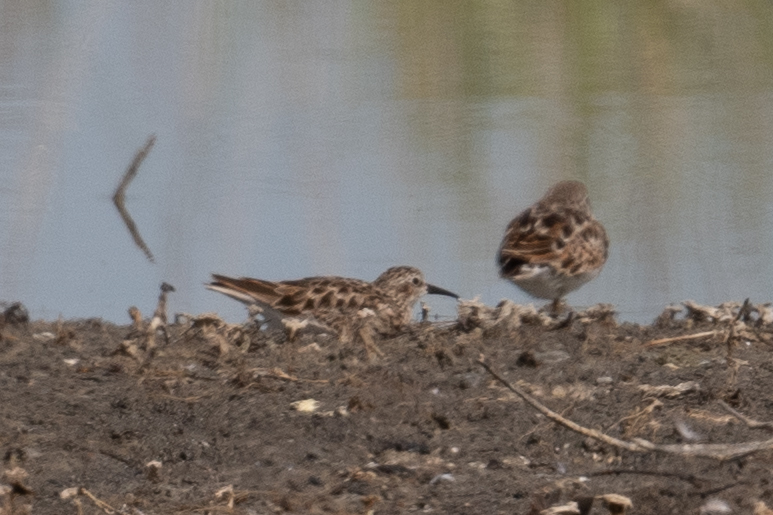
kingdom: Animalia
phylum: Chordata
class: Aves
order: Charadriiformes
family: Scolopacidae
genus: Calidris
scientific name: Calidris minutilla
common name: Least sandpiper
